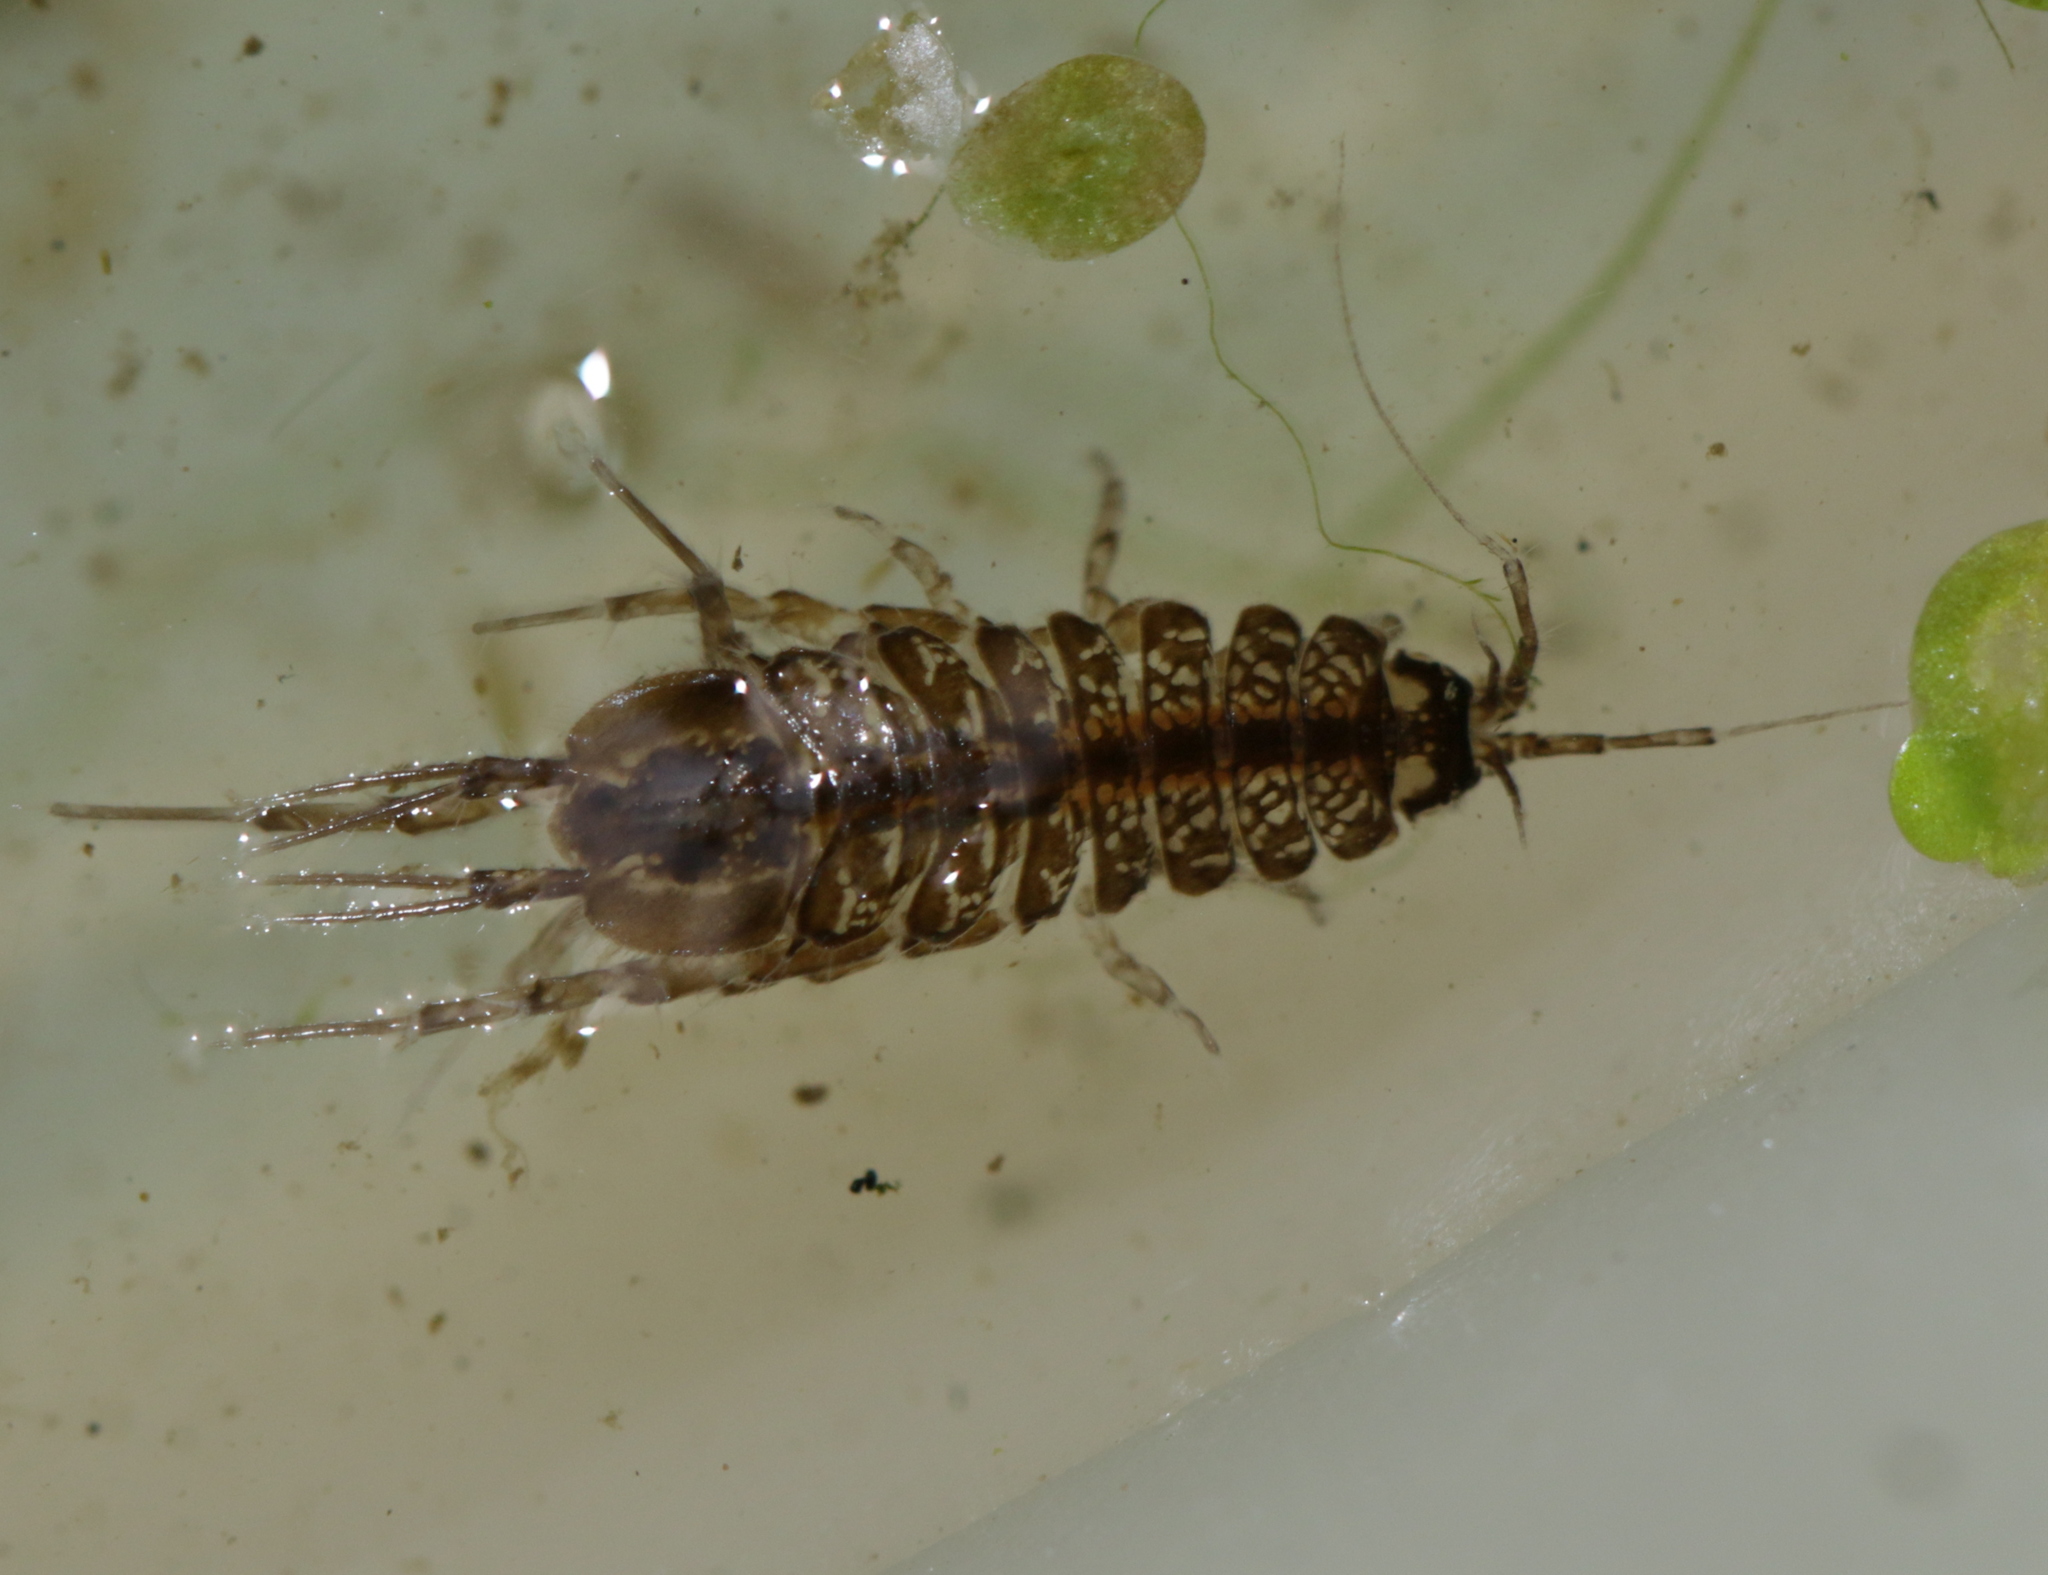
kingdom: Animalia
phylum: Arthropoda
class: Malacostraca
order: Isopoda
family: Asellidae
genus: Asellus
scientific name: Asellus aquaticus
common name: Water hog lice/slaters
